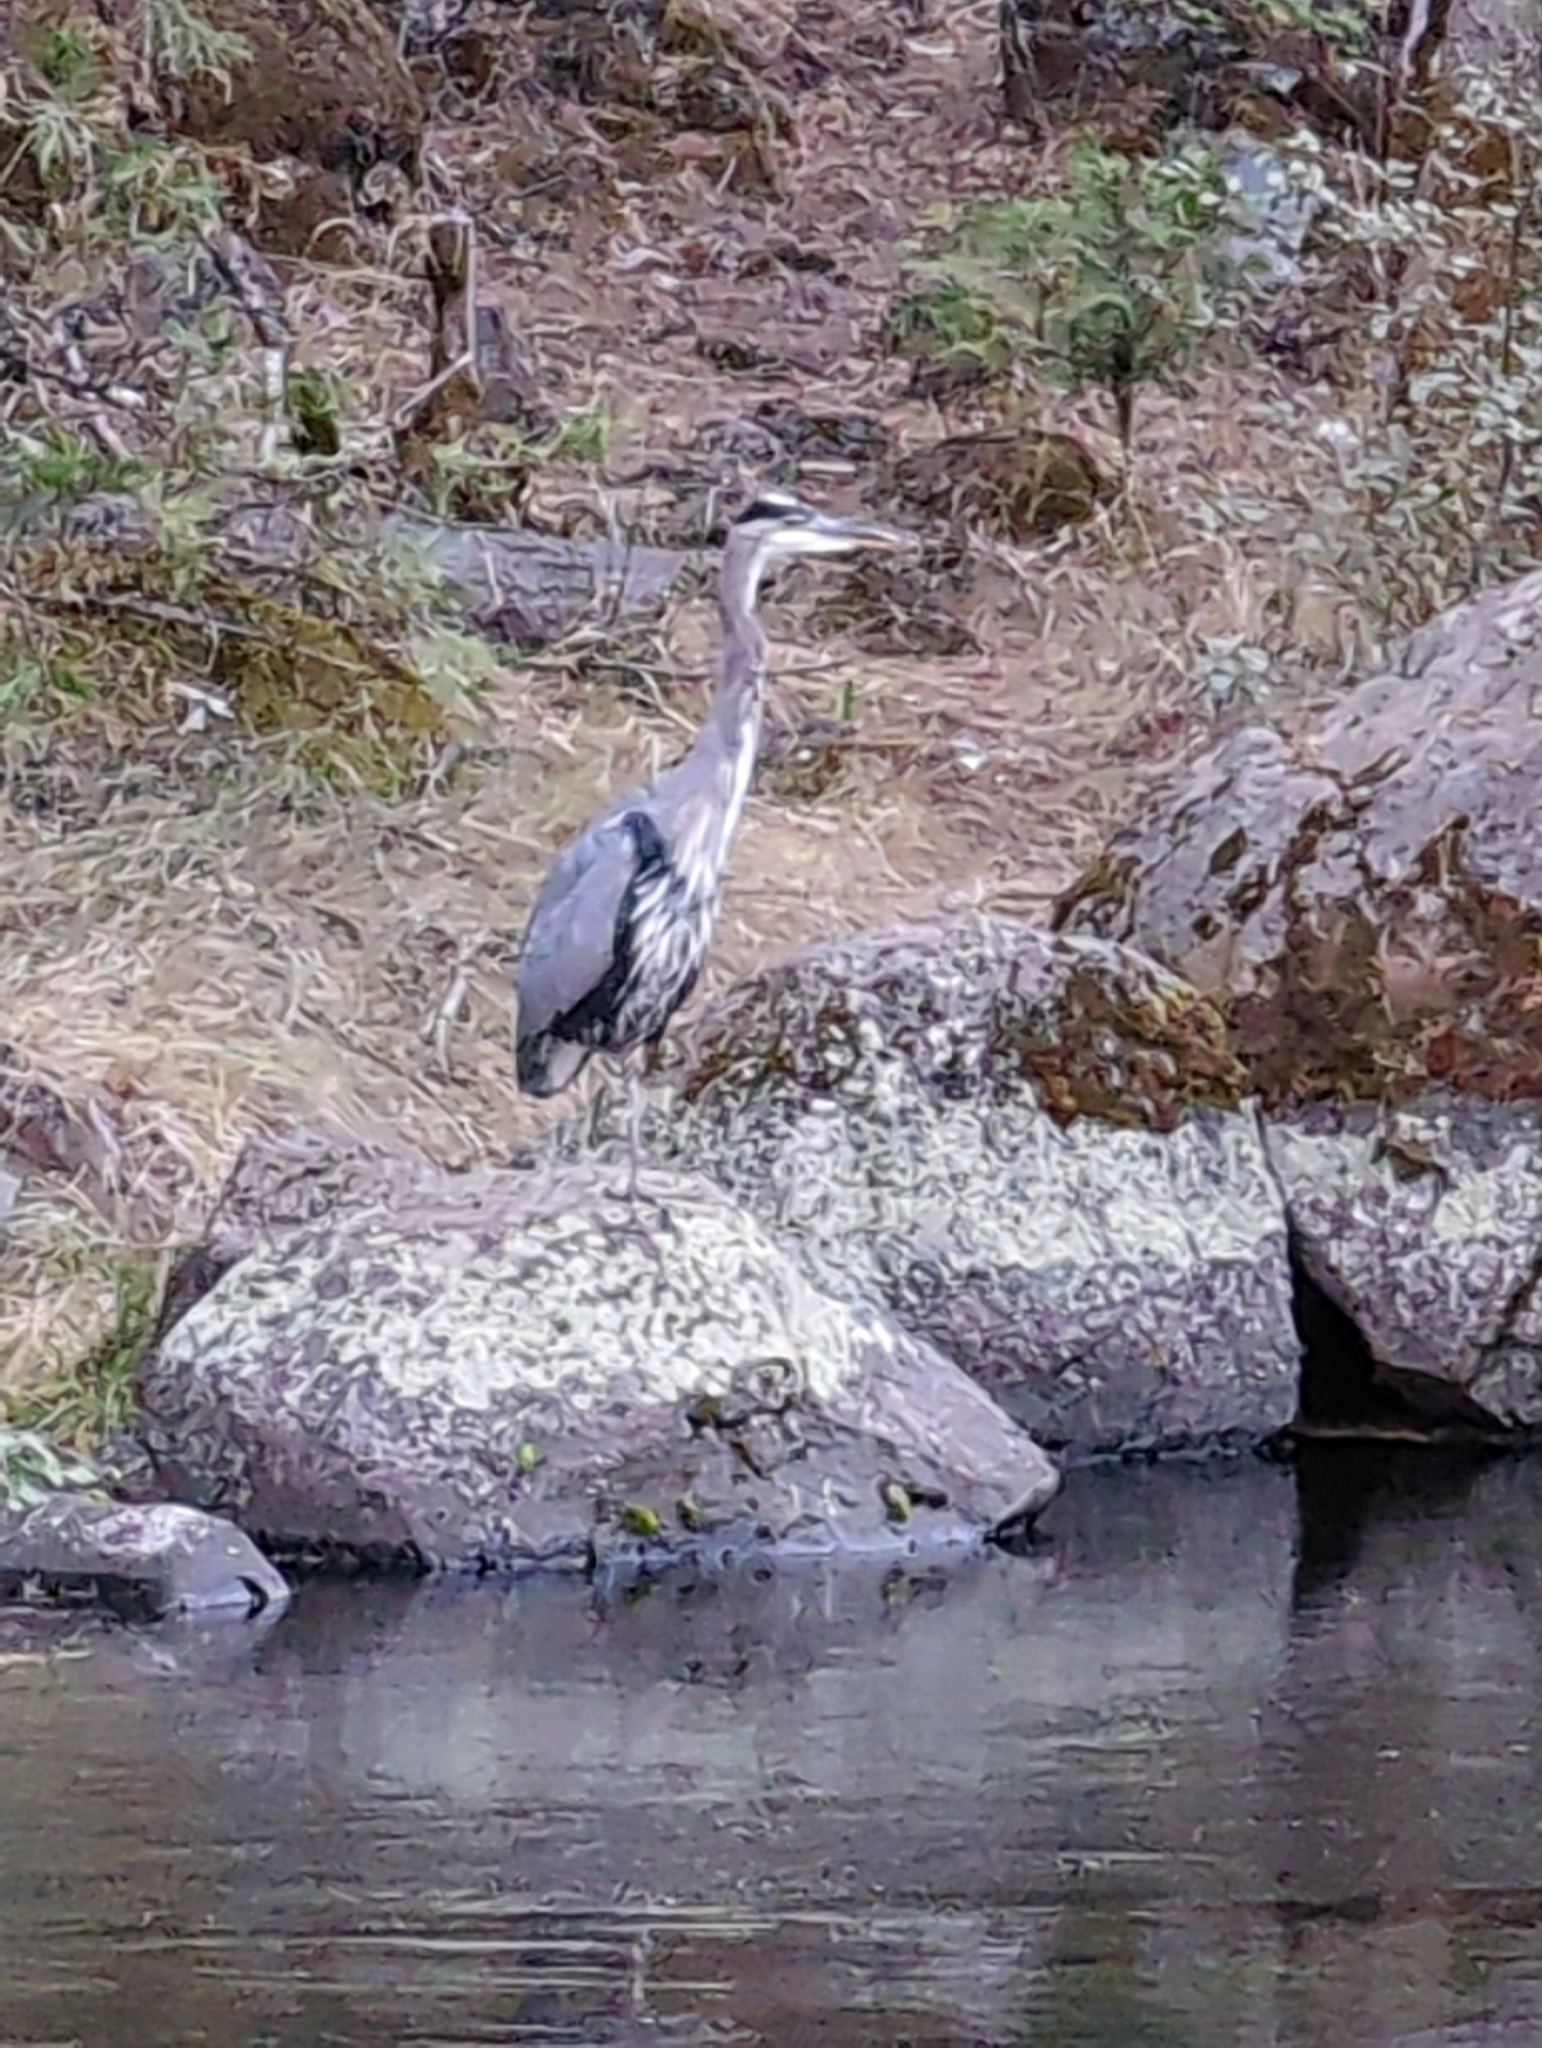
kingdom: Animalia
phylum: Chordata
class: Aves
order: Pelecaniformes
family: Ardeidae
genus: Ardea
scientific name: Ardea herodias
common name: Great blue heron
